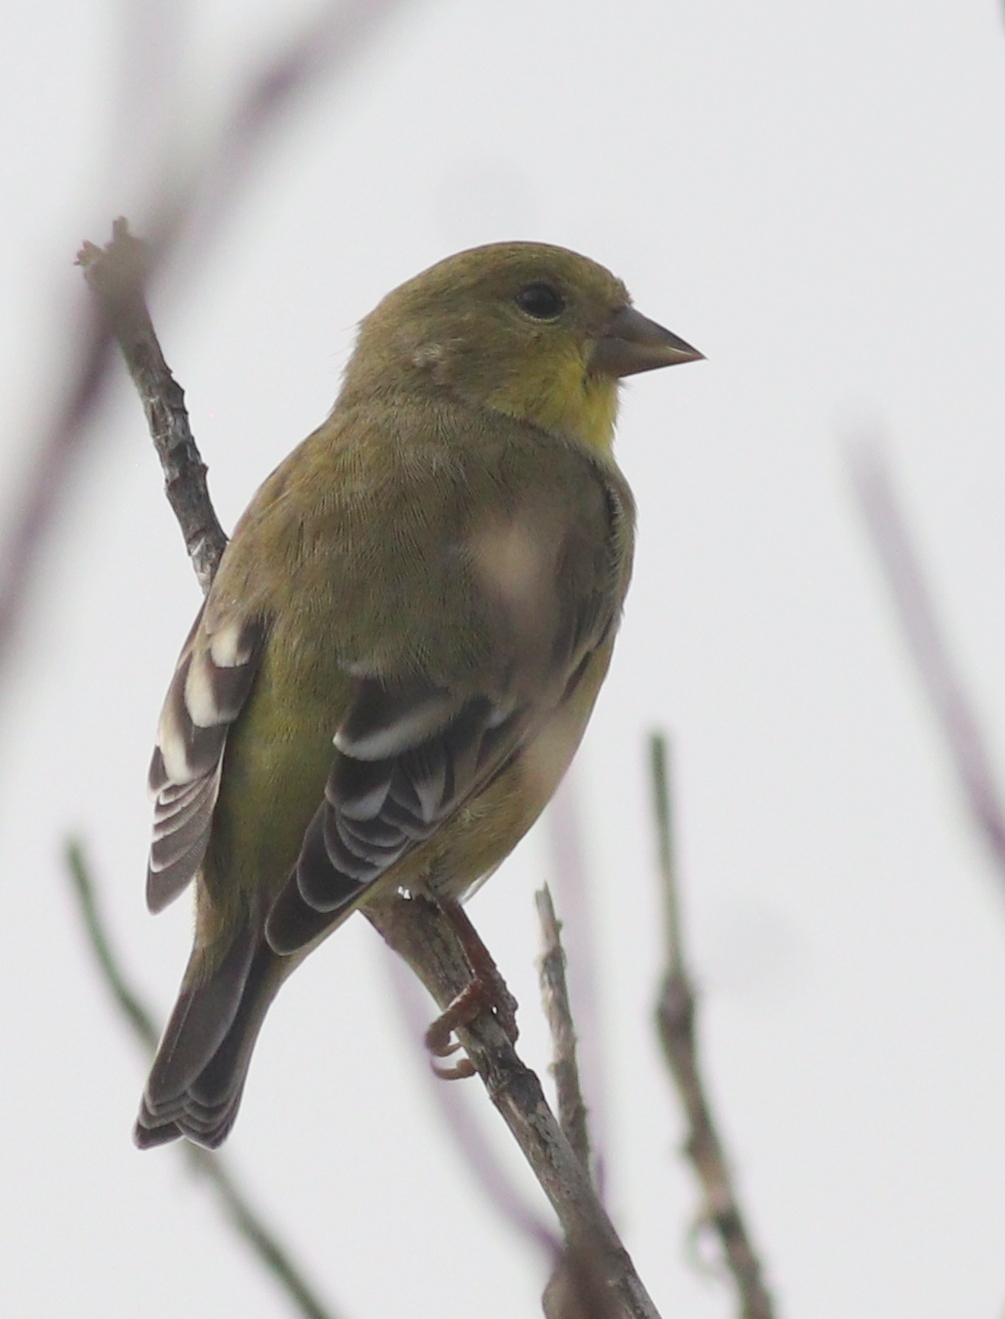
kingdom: Animalia
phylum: Chordata
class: Aves
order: Passeriformes
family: Fringillidae
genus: Spinus
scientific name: Spinus psaltria
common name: Lesser goldfinch
